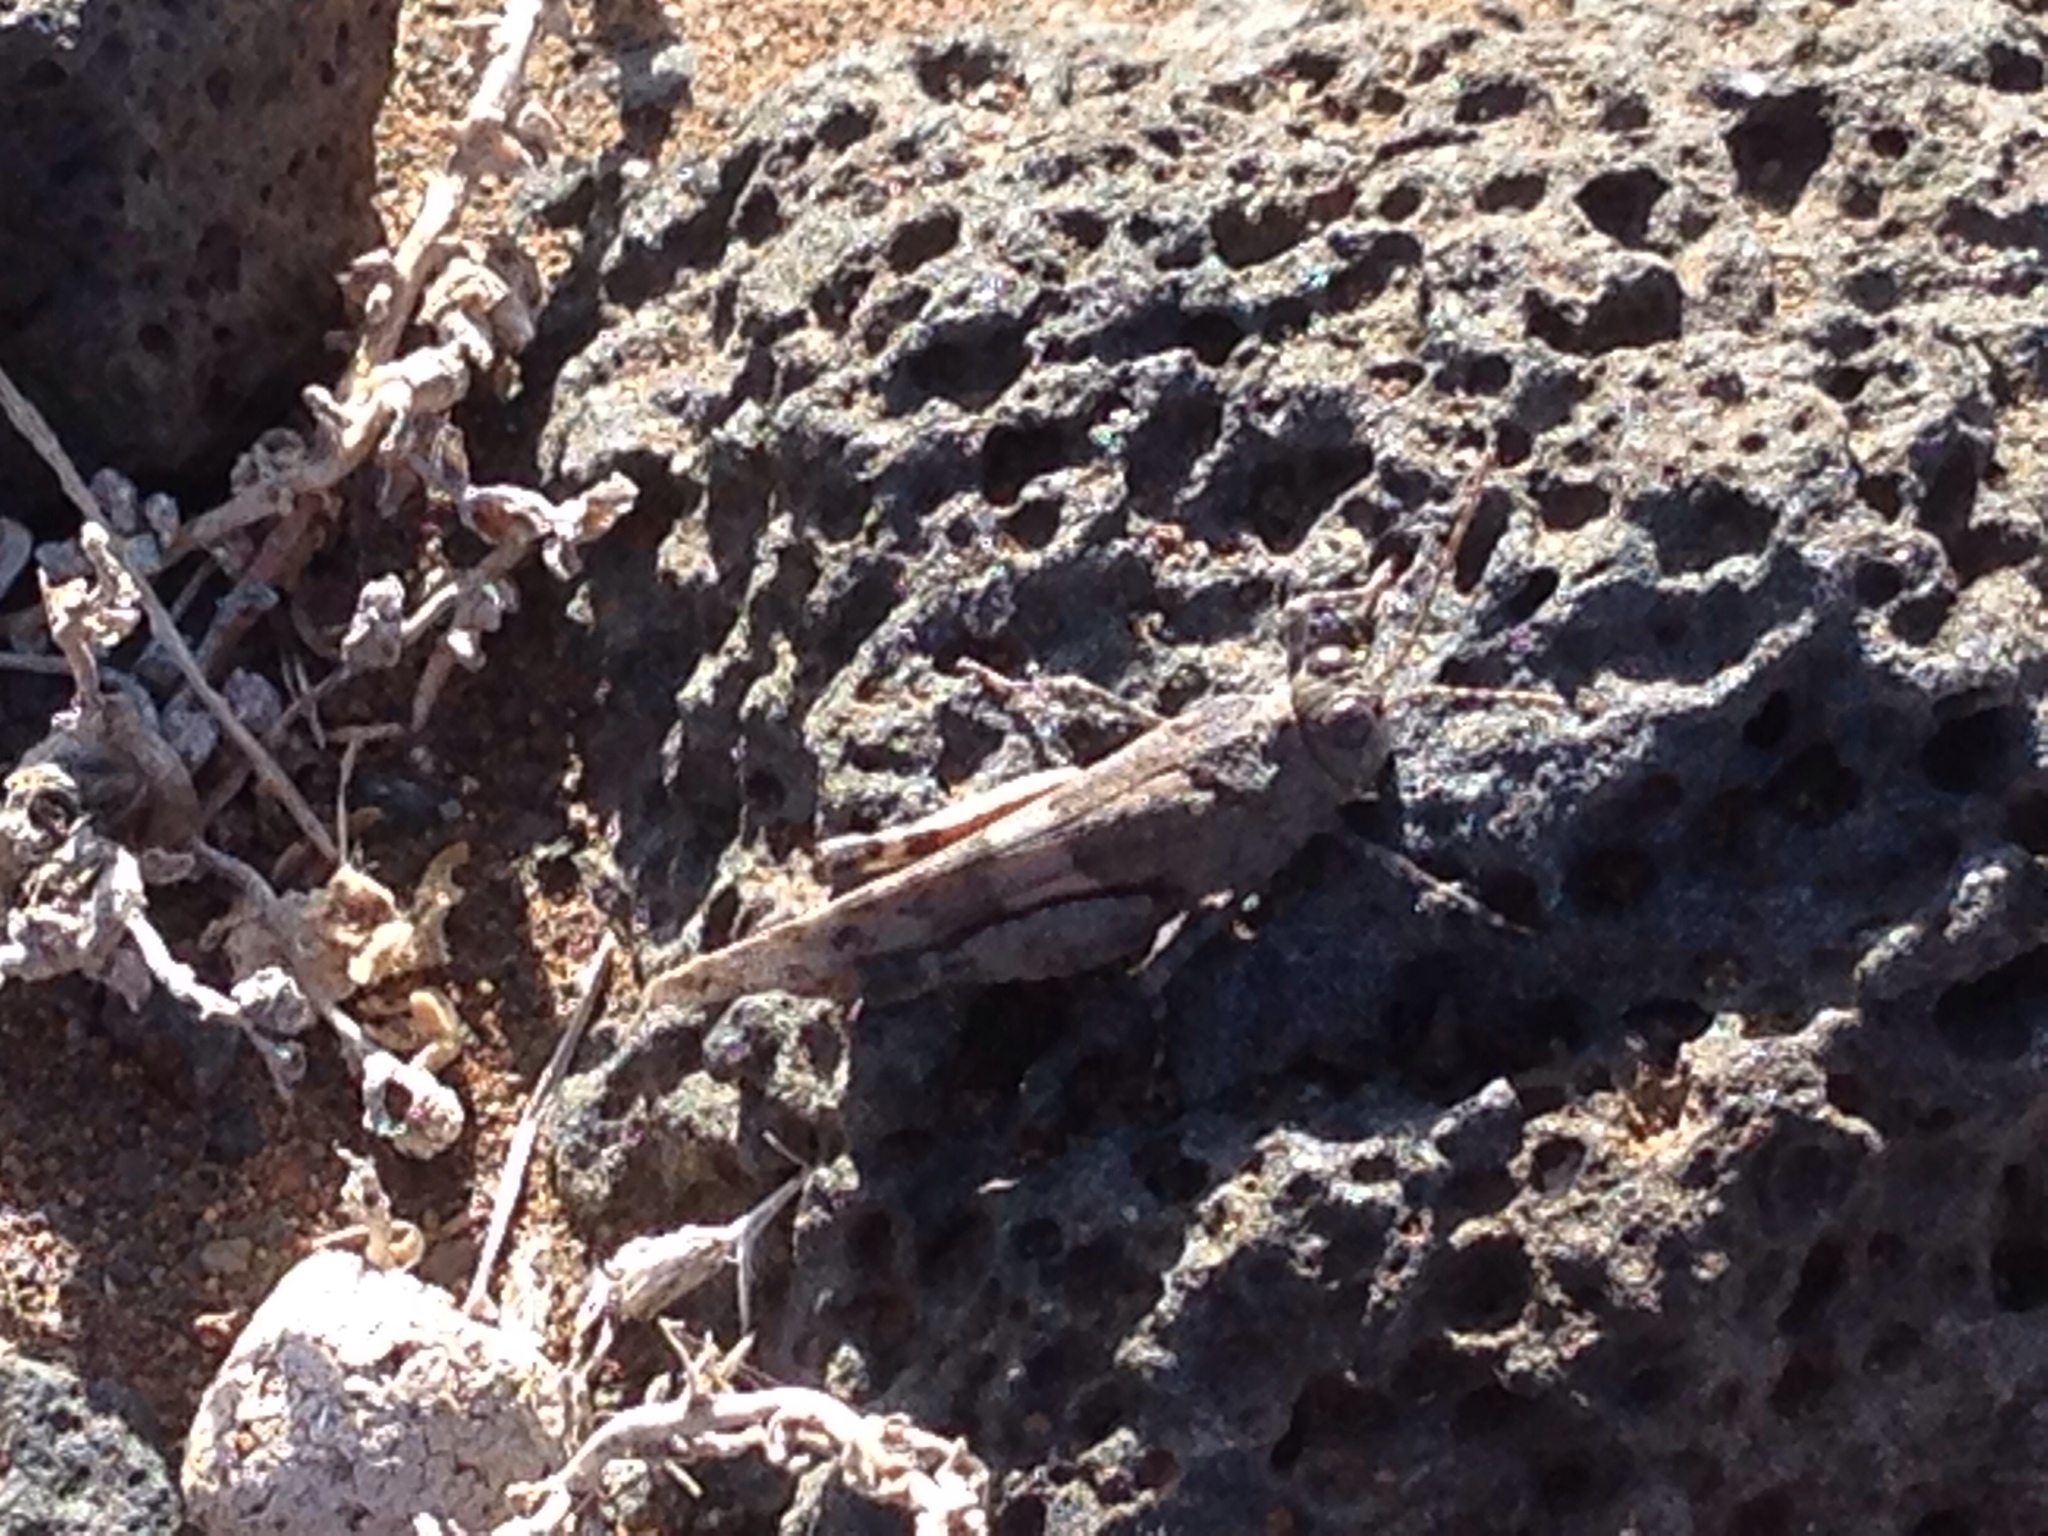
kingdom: Animalia
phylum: Arthropoda
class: Insecta
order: Orthoptera
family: Acrididae
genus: Oedipoda
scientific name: Oedipoda canariensis
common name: Canarian band-winged grasshopper
